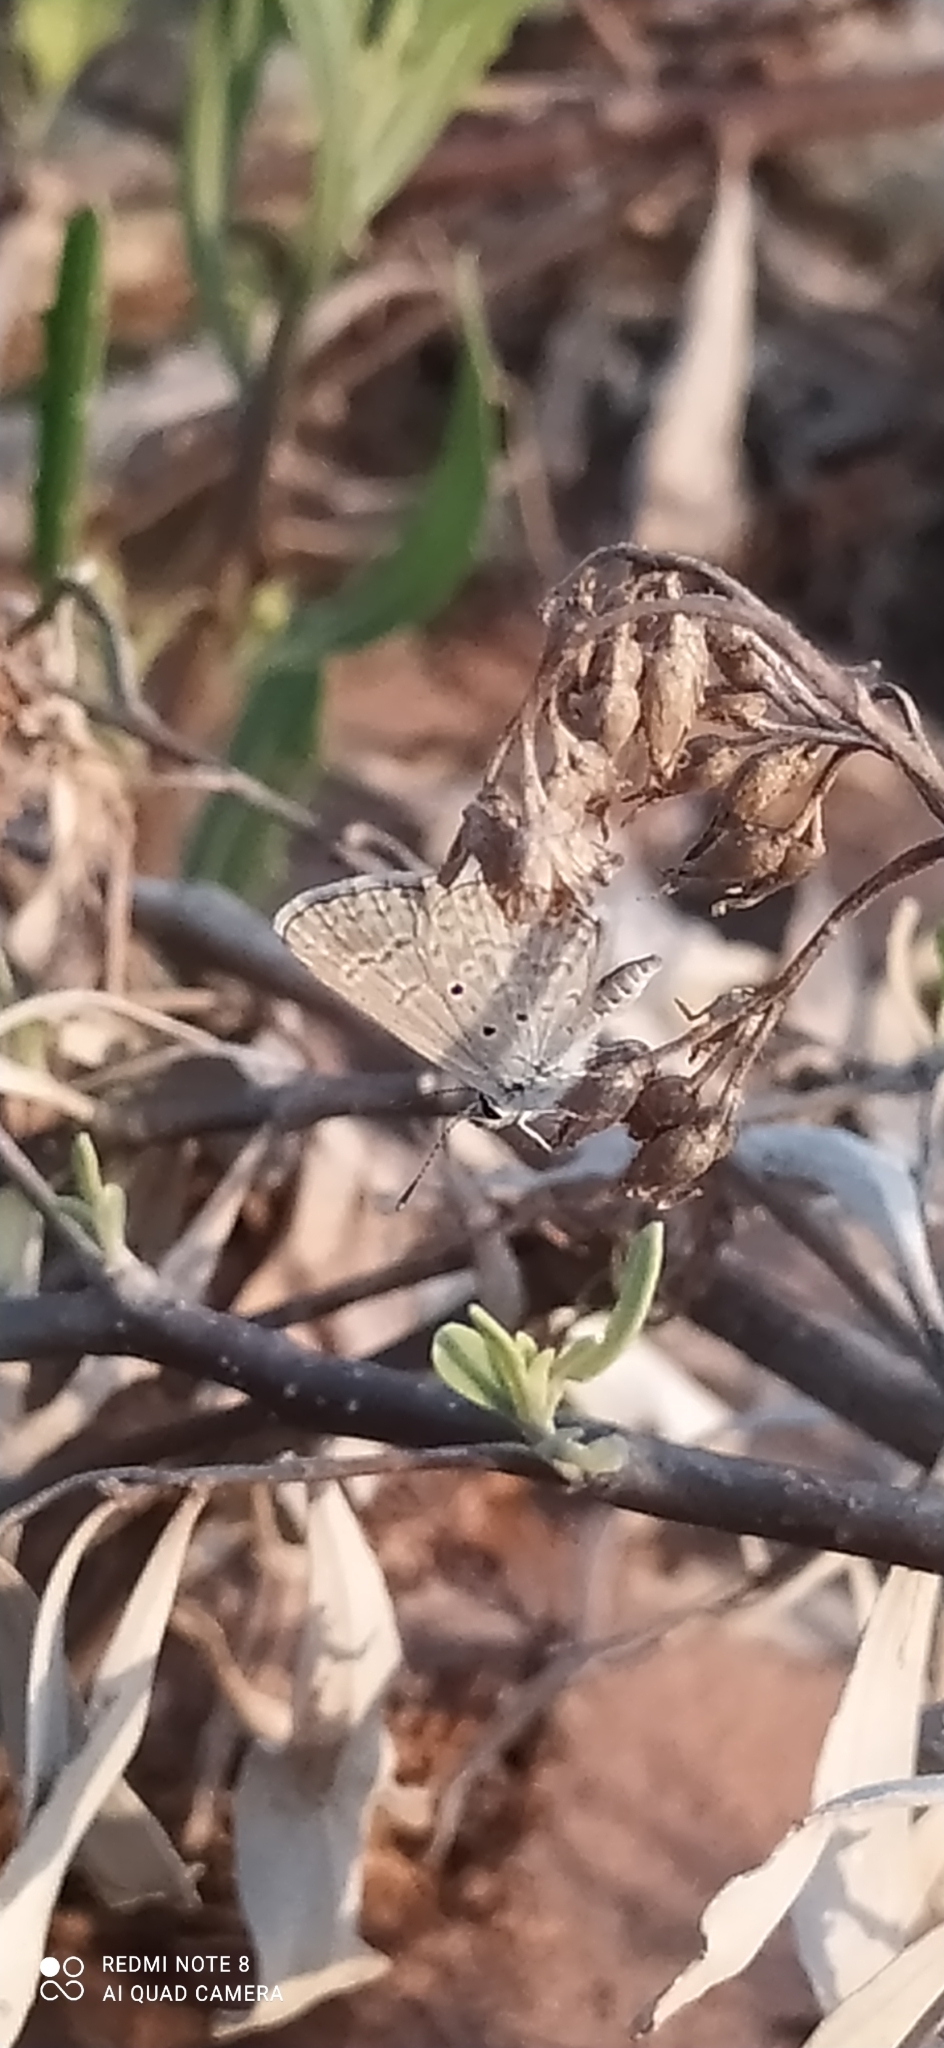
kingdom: Animalia
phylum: Arthropoda
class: Insecta
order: Lepidoptera
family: Lycaenidae
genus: Hemiargus
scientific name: Hemiargus hanno
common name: Common blue
